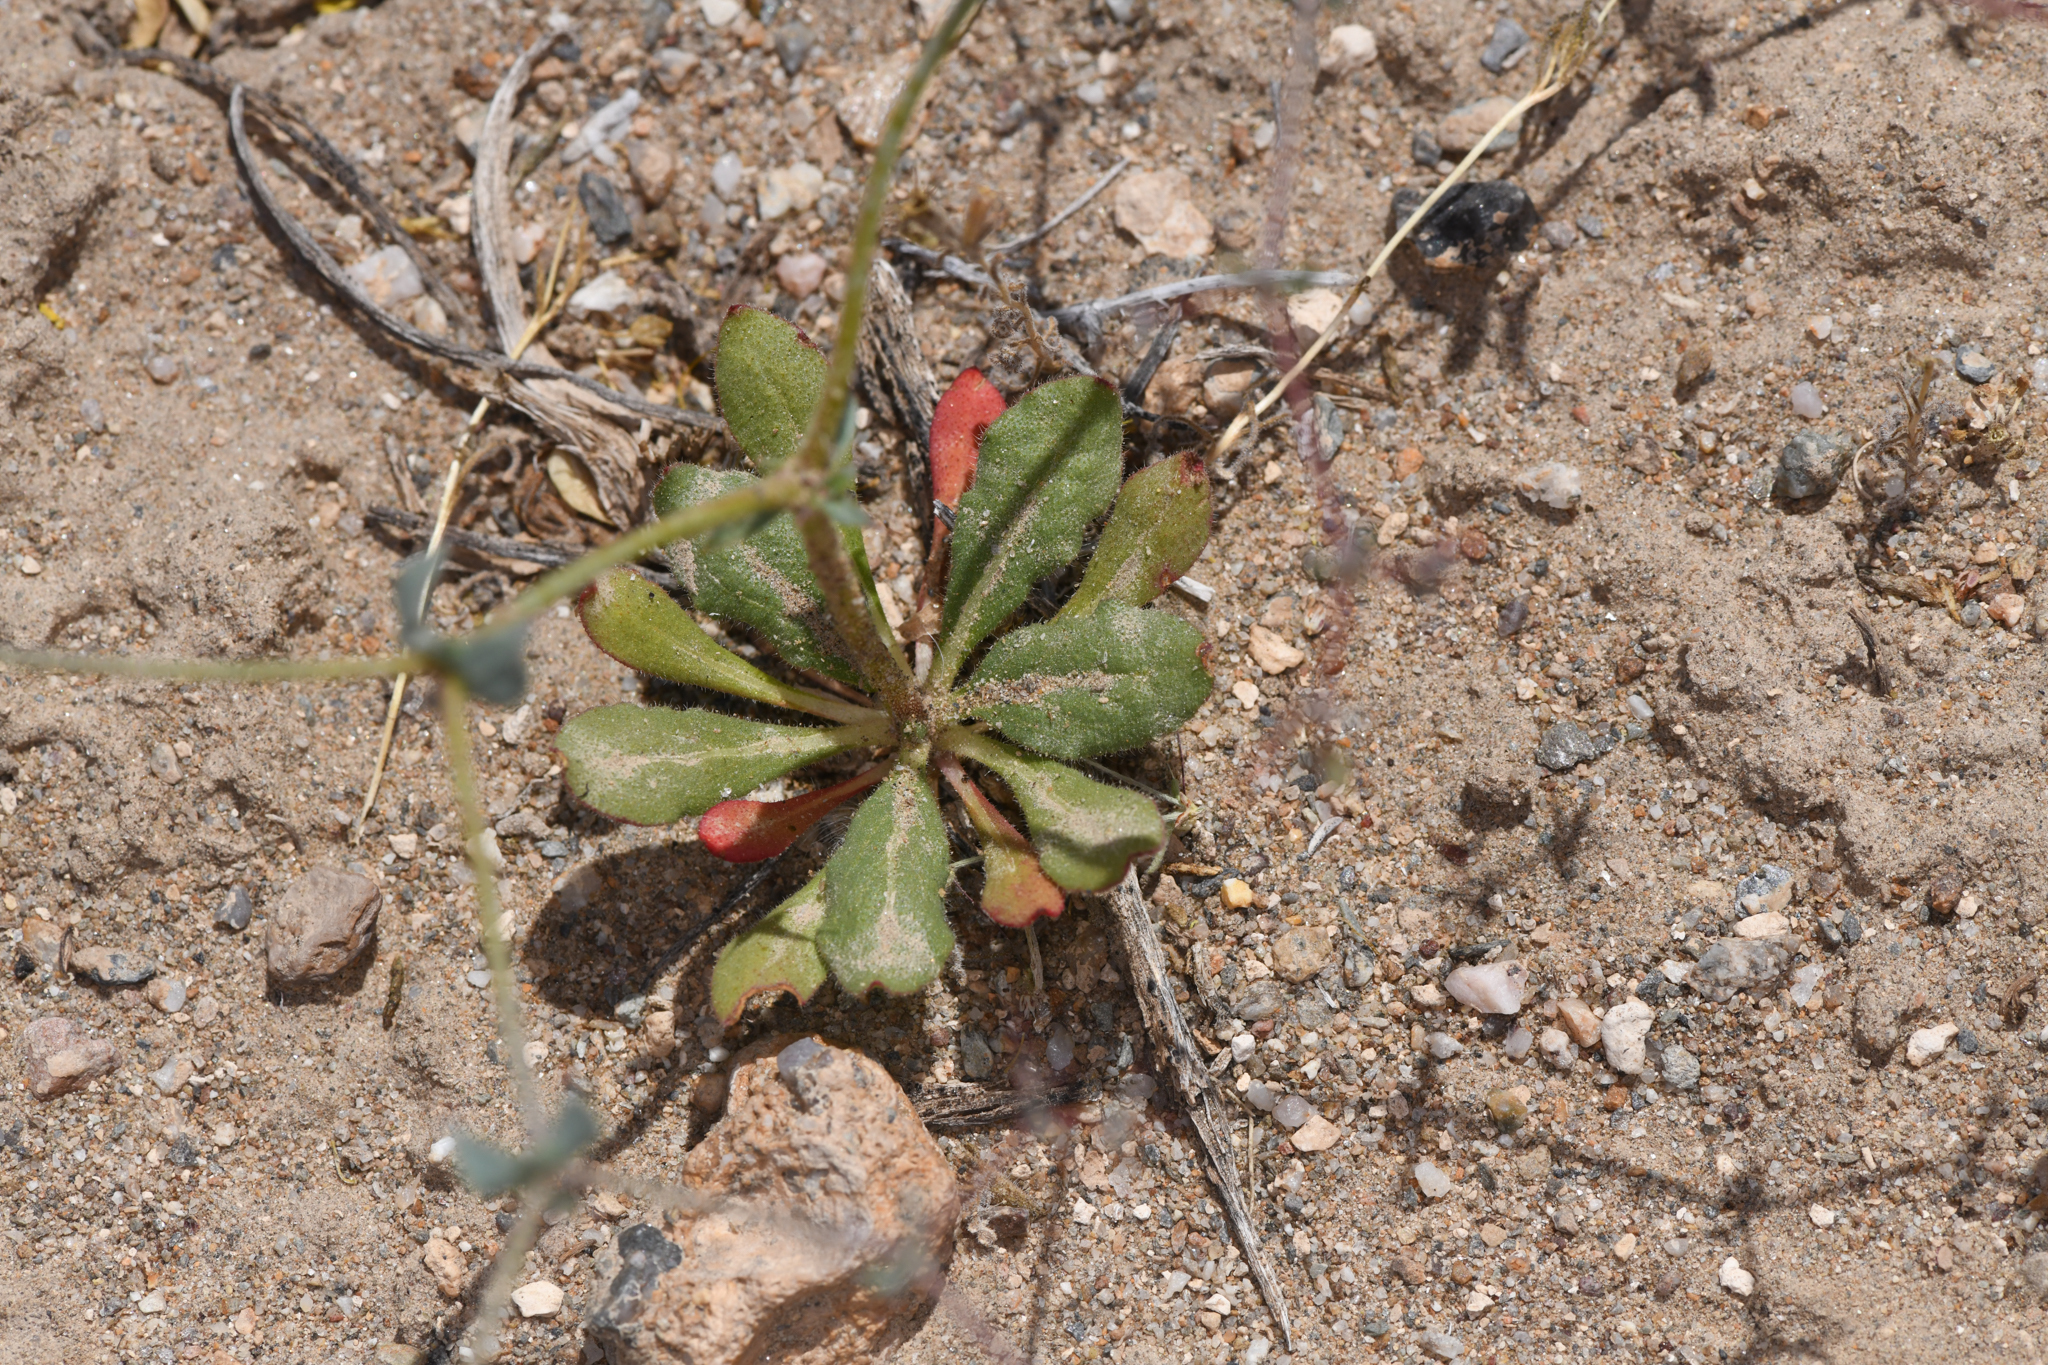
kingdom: Plantae
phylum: Tracheophyta
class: Magnoliopsida
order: Caryophyllales
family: Polygonaceae
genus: Oxytheca
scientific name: Oxytheca watsonii
